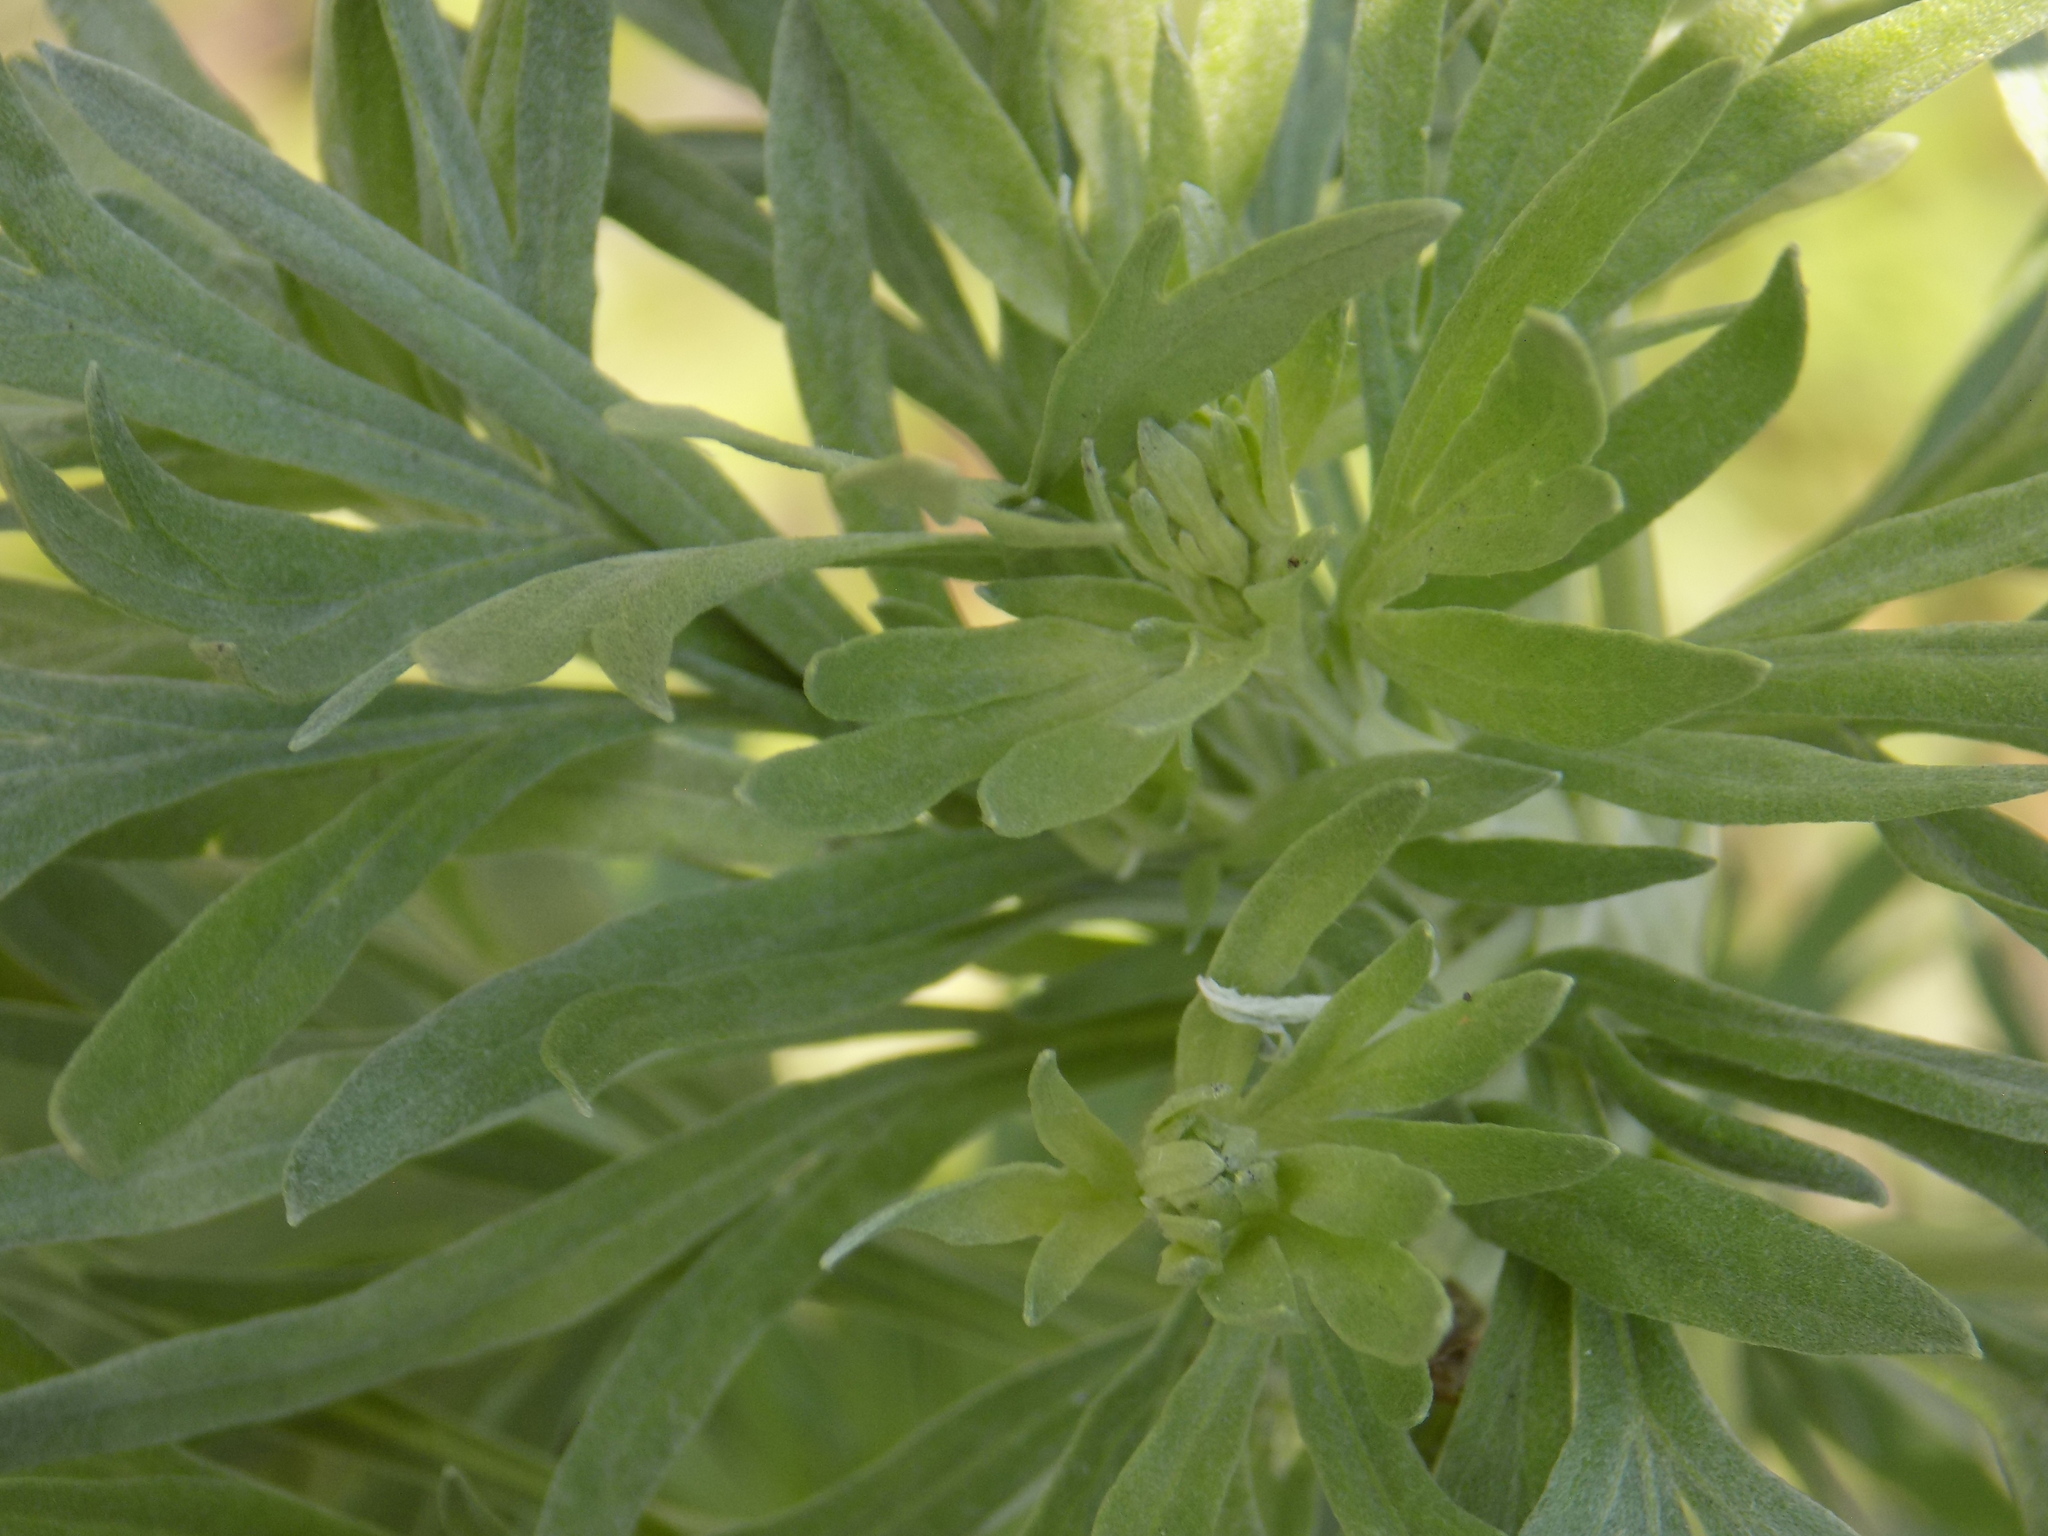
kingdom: Plantae
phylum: Tracheophyta
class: Magnoliopsida
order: Asterales
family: Asteraceae
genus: Artemisia
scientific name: Artemisia absinthium
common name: Wormwood
